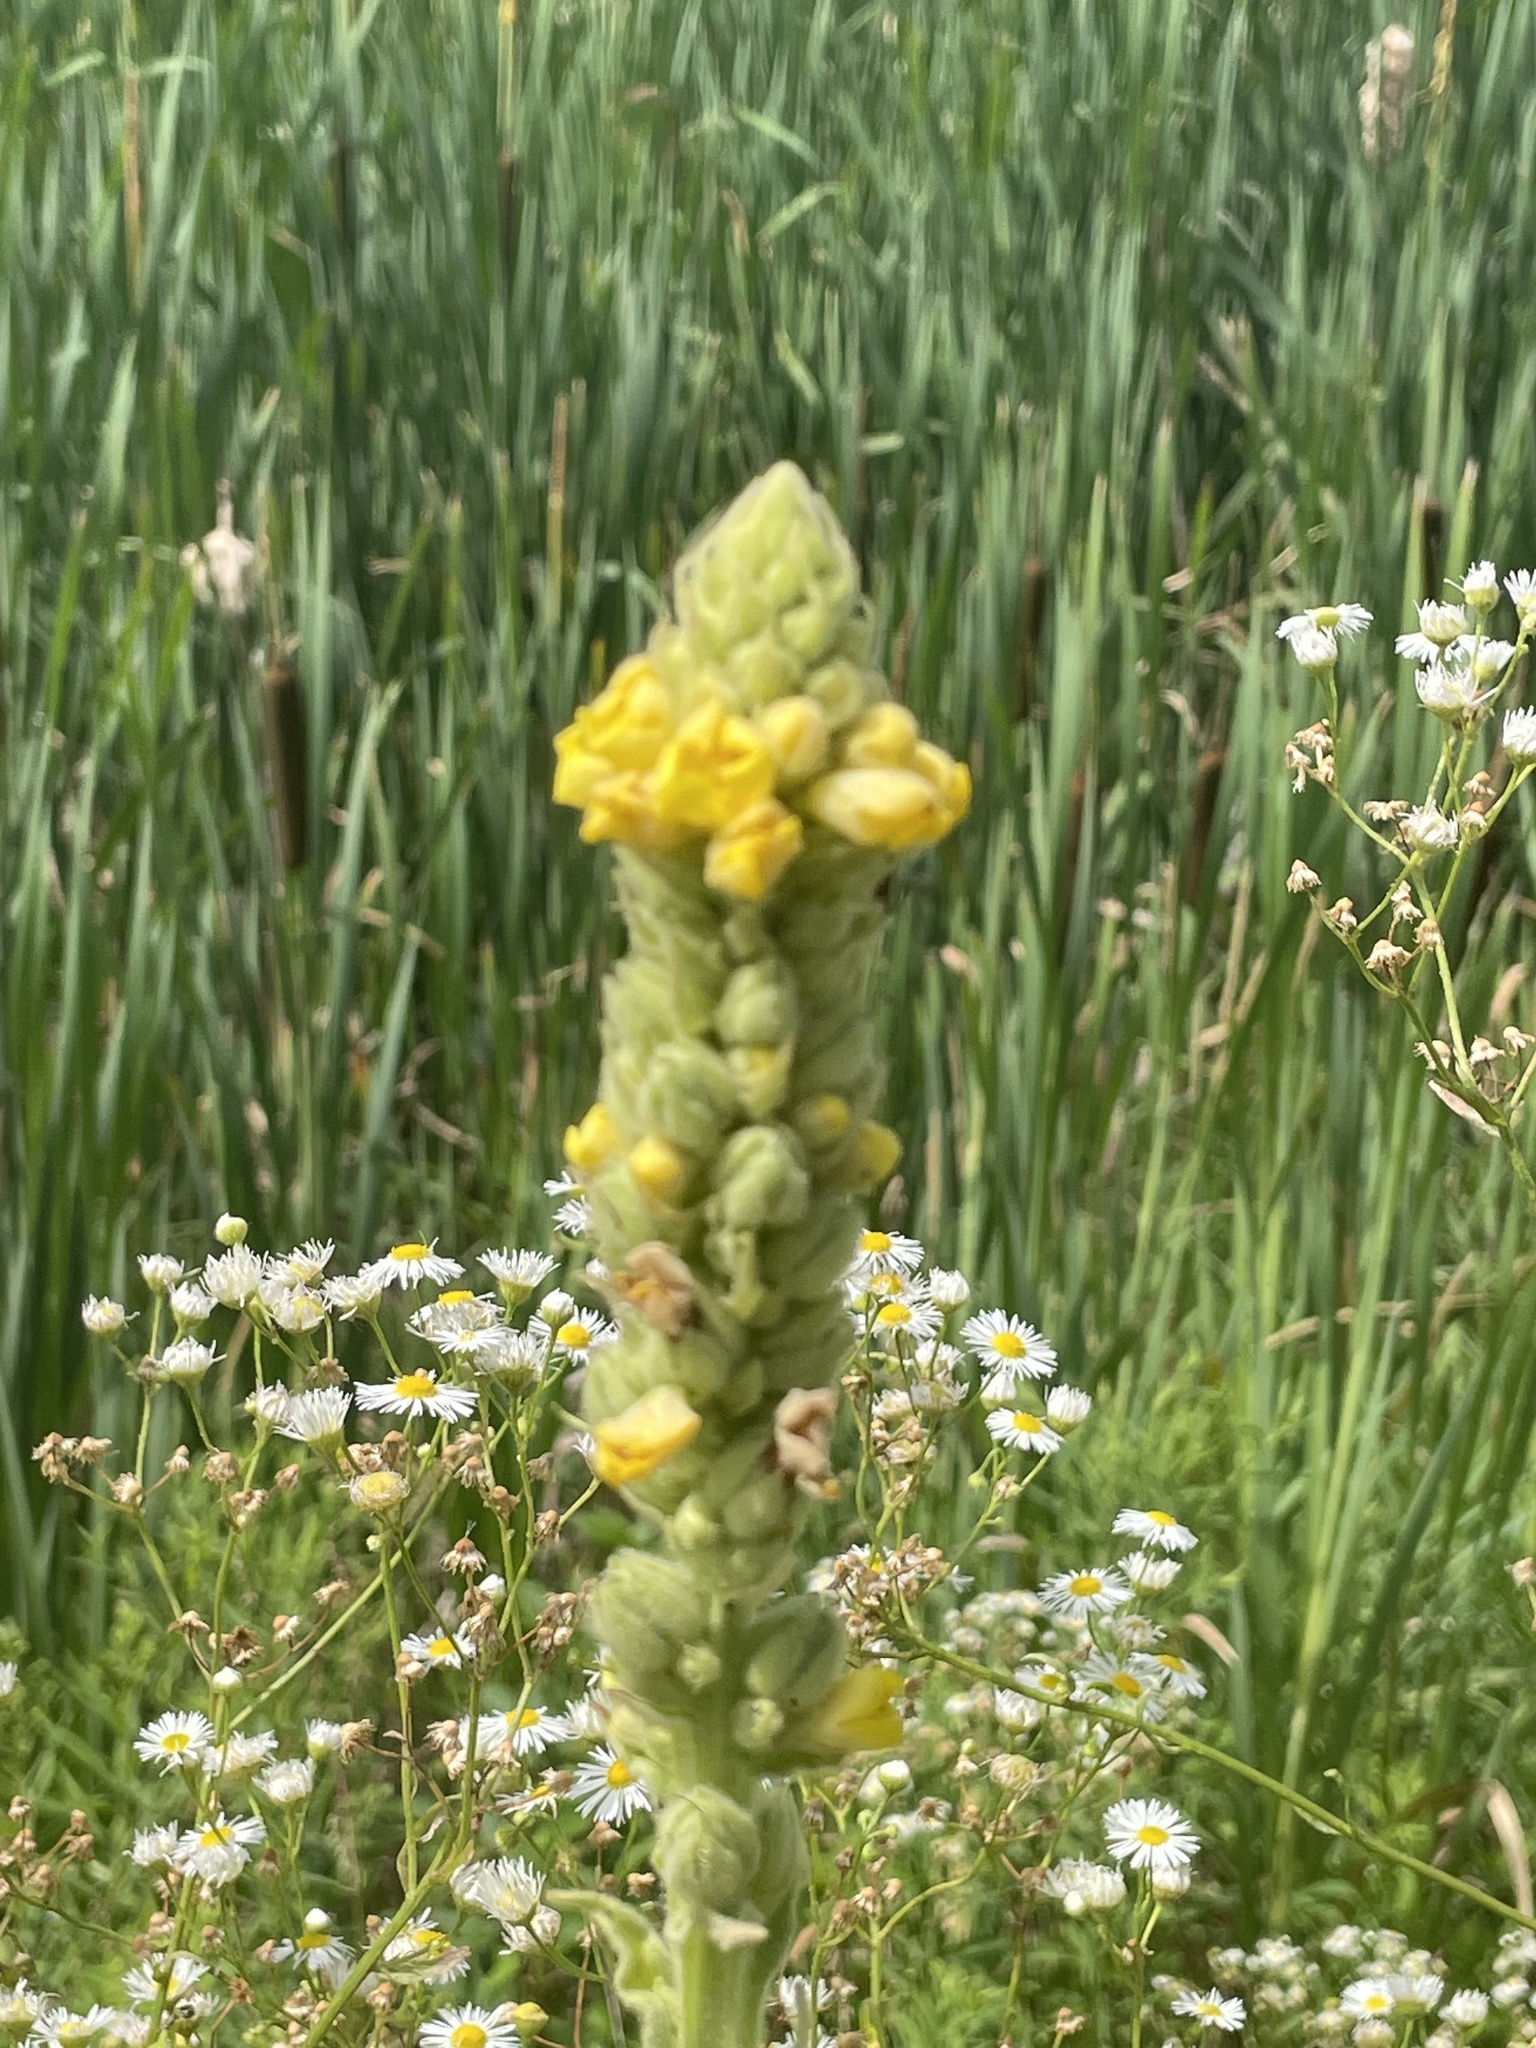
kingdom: Plantae
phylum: Tracheophyta
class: Magnoliopsida
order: Lamiales
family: Scrophulariaceae
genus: Verbascum
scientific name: Verbascum thapsus
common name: Common mullein
